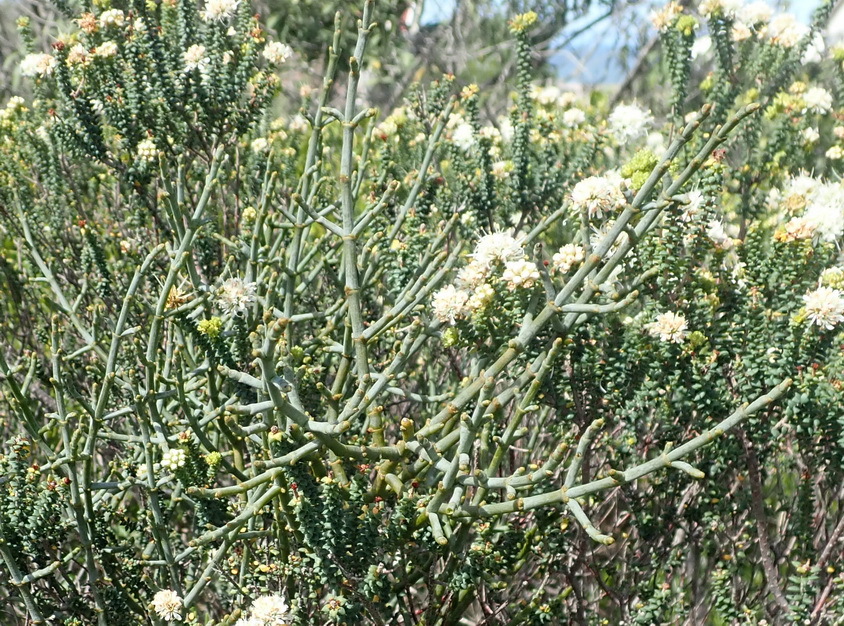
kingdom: Plantae
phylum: Tracheophyta
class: Magnoliopsida
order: Santalales
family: Viscaceae
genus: Viscum
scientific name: Viscum capense
